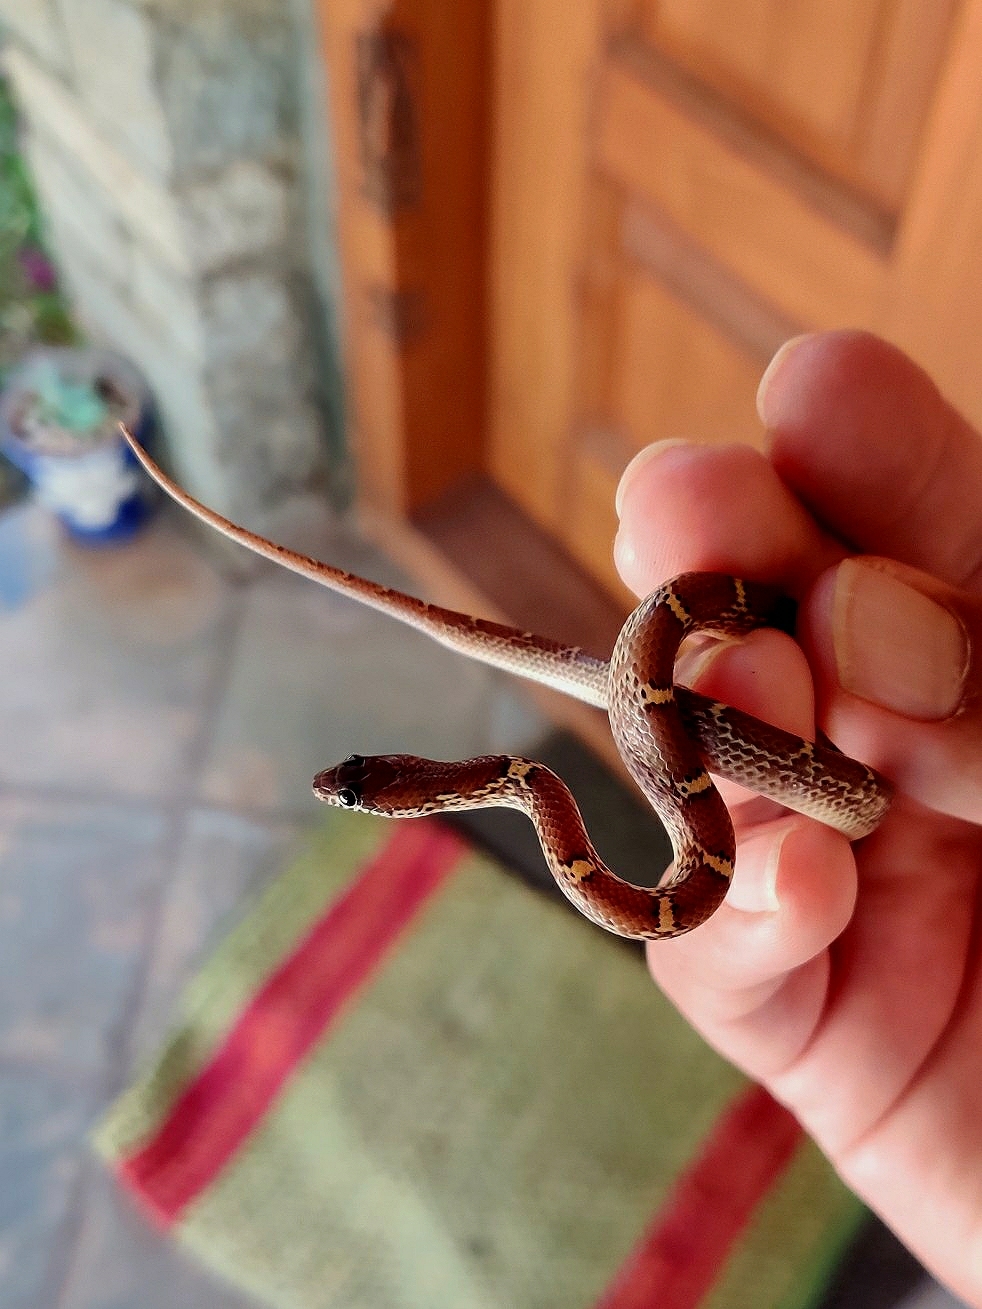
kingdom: Animalia
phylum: Chordata
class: Squamata
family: Colubridae
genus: Lycodon
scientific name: Lycodon fasciolatus
